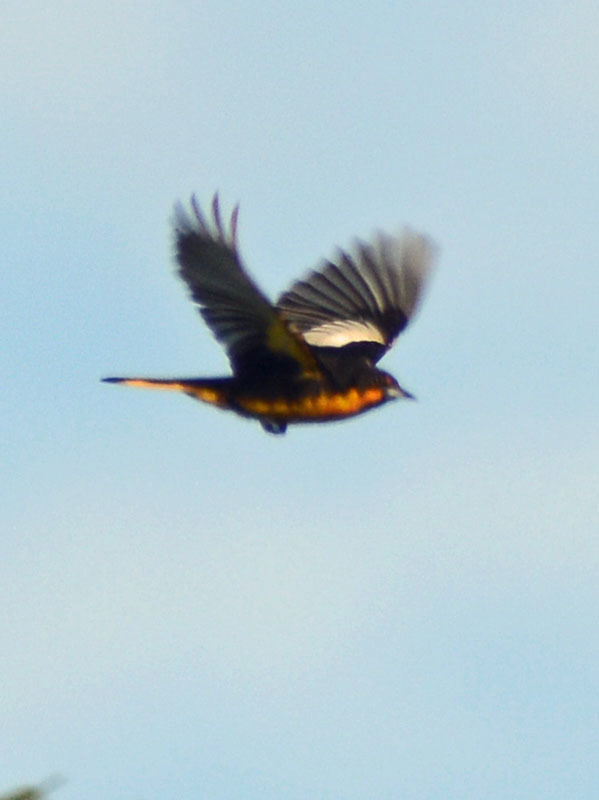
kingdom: Animalia
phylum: Chordata
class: Aves
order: Passeriformes
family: Icteridae
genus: Icterus
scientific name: Icterus abeillei
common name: Black-backed oriole
